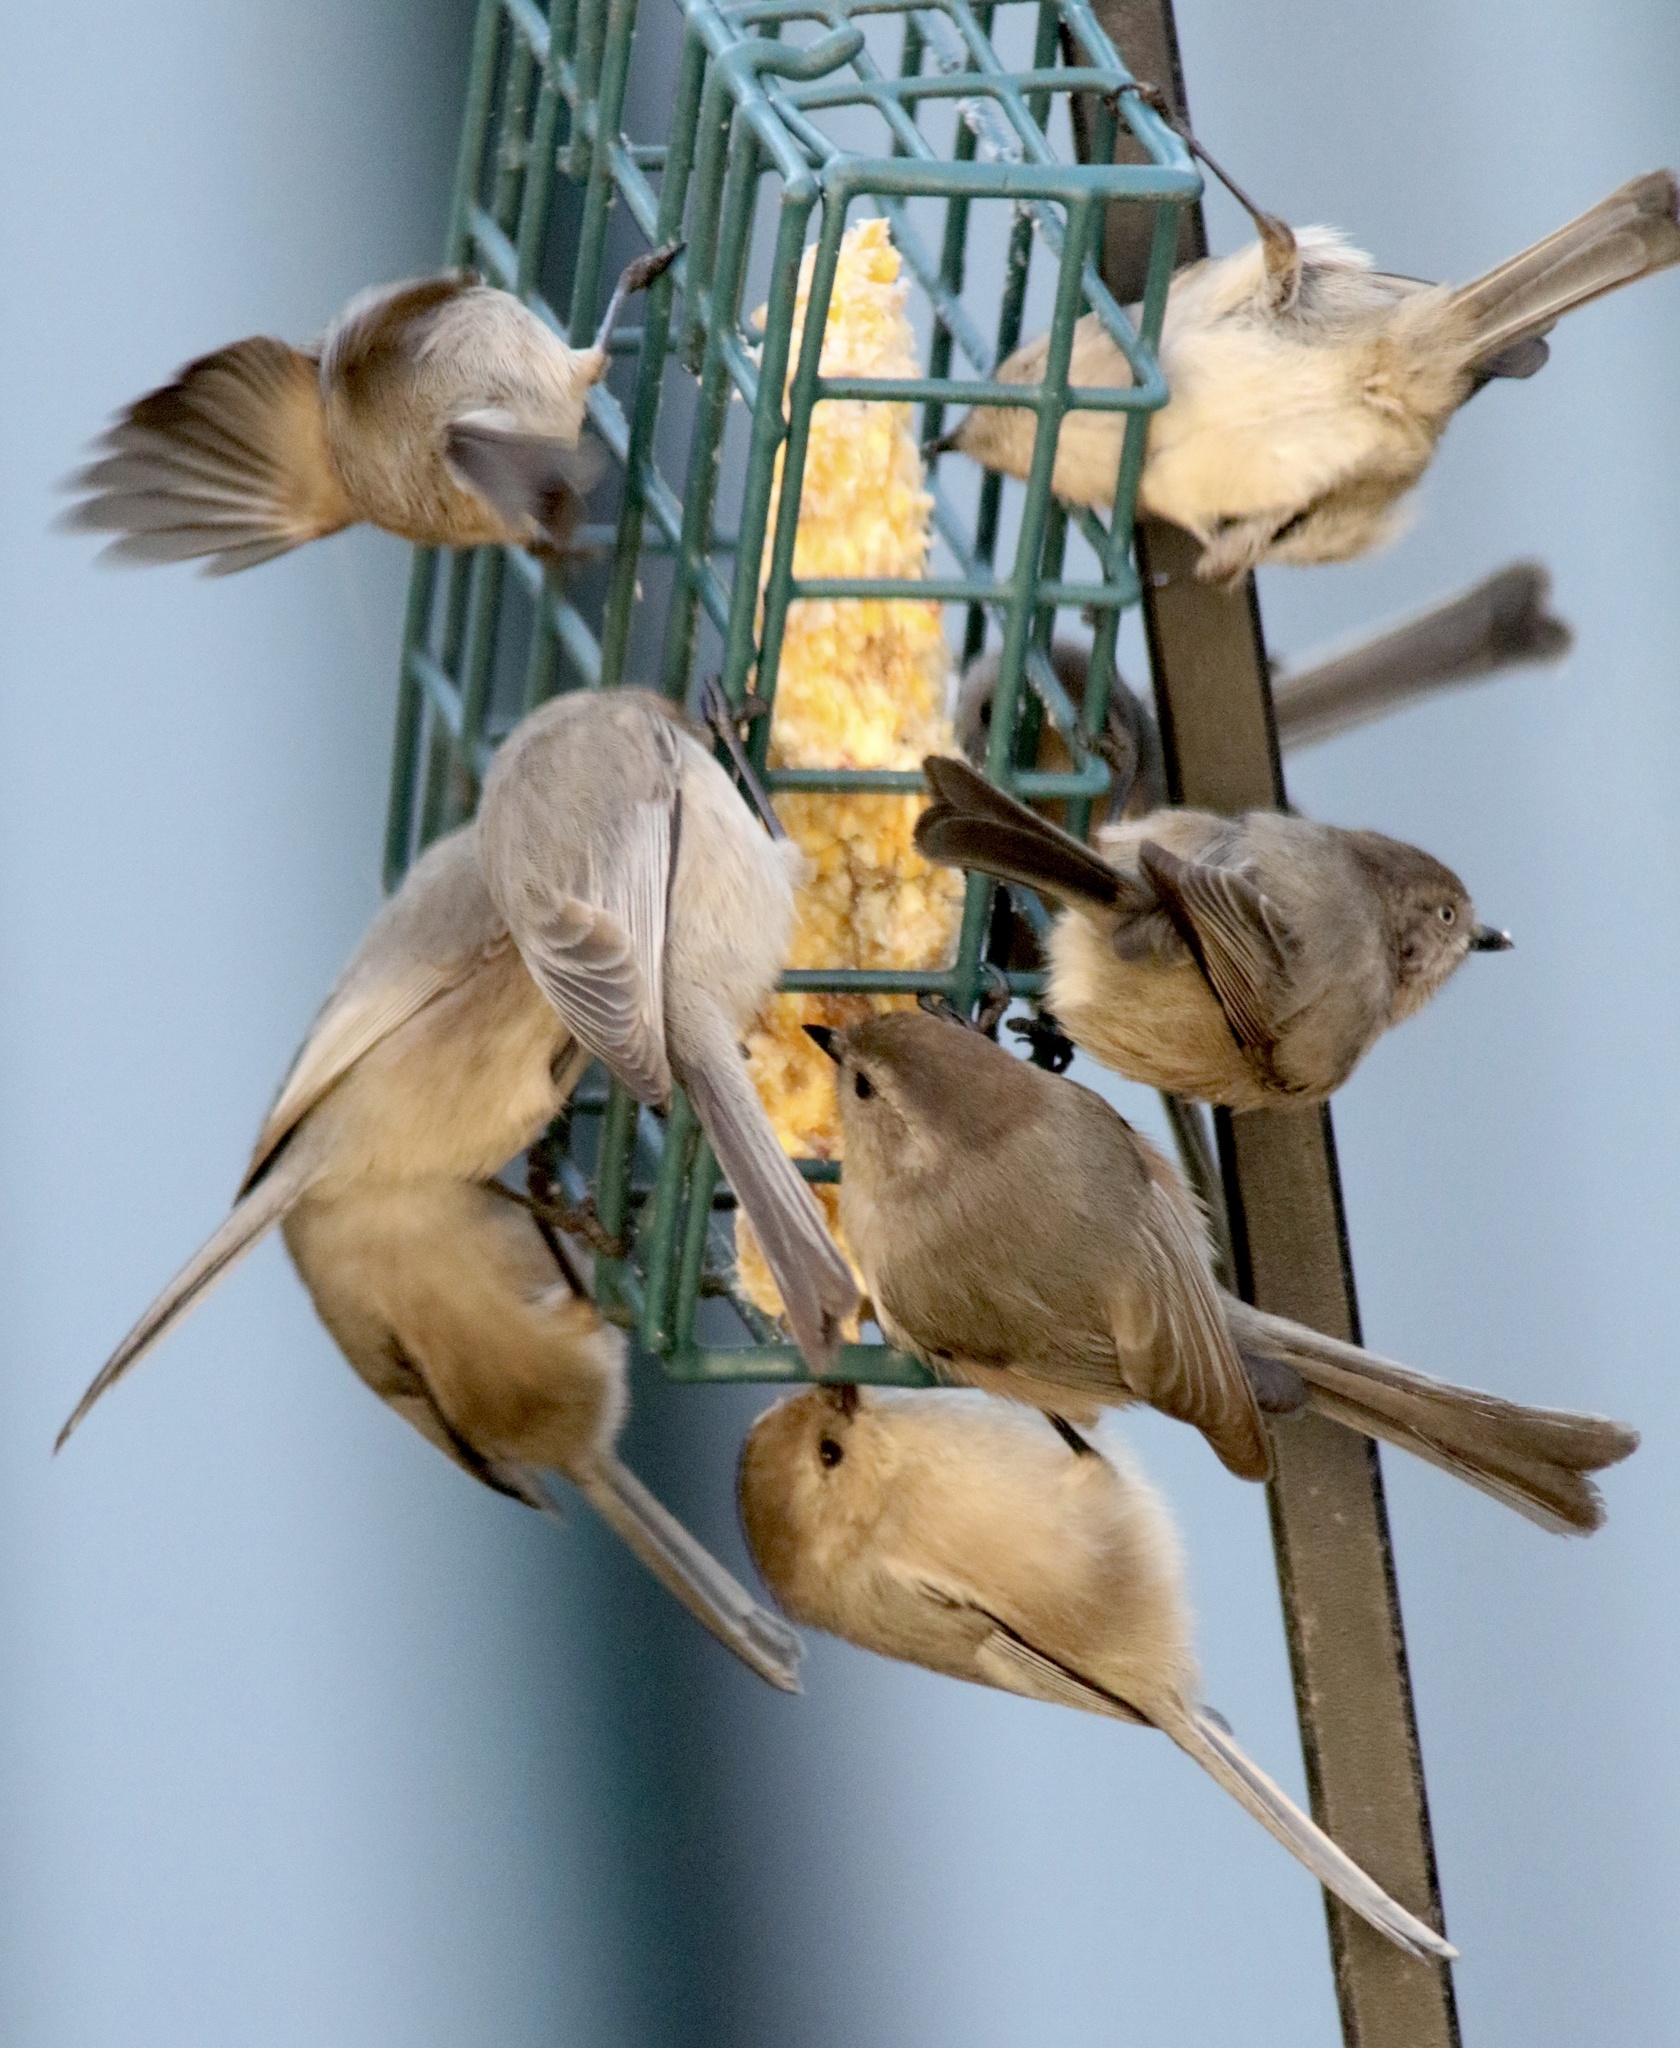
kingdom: Animalia
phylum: Chordata
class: Aves
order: Passeriformes
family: Aegithalidae
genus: Psaltriparus
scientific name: Psaltriparus minimus
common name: American bushtit
